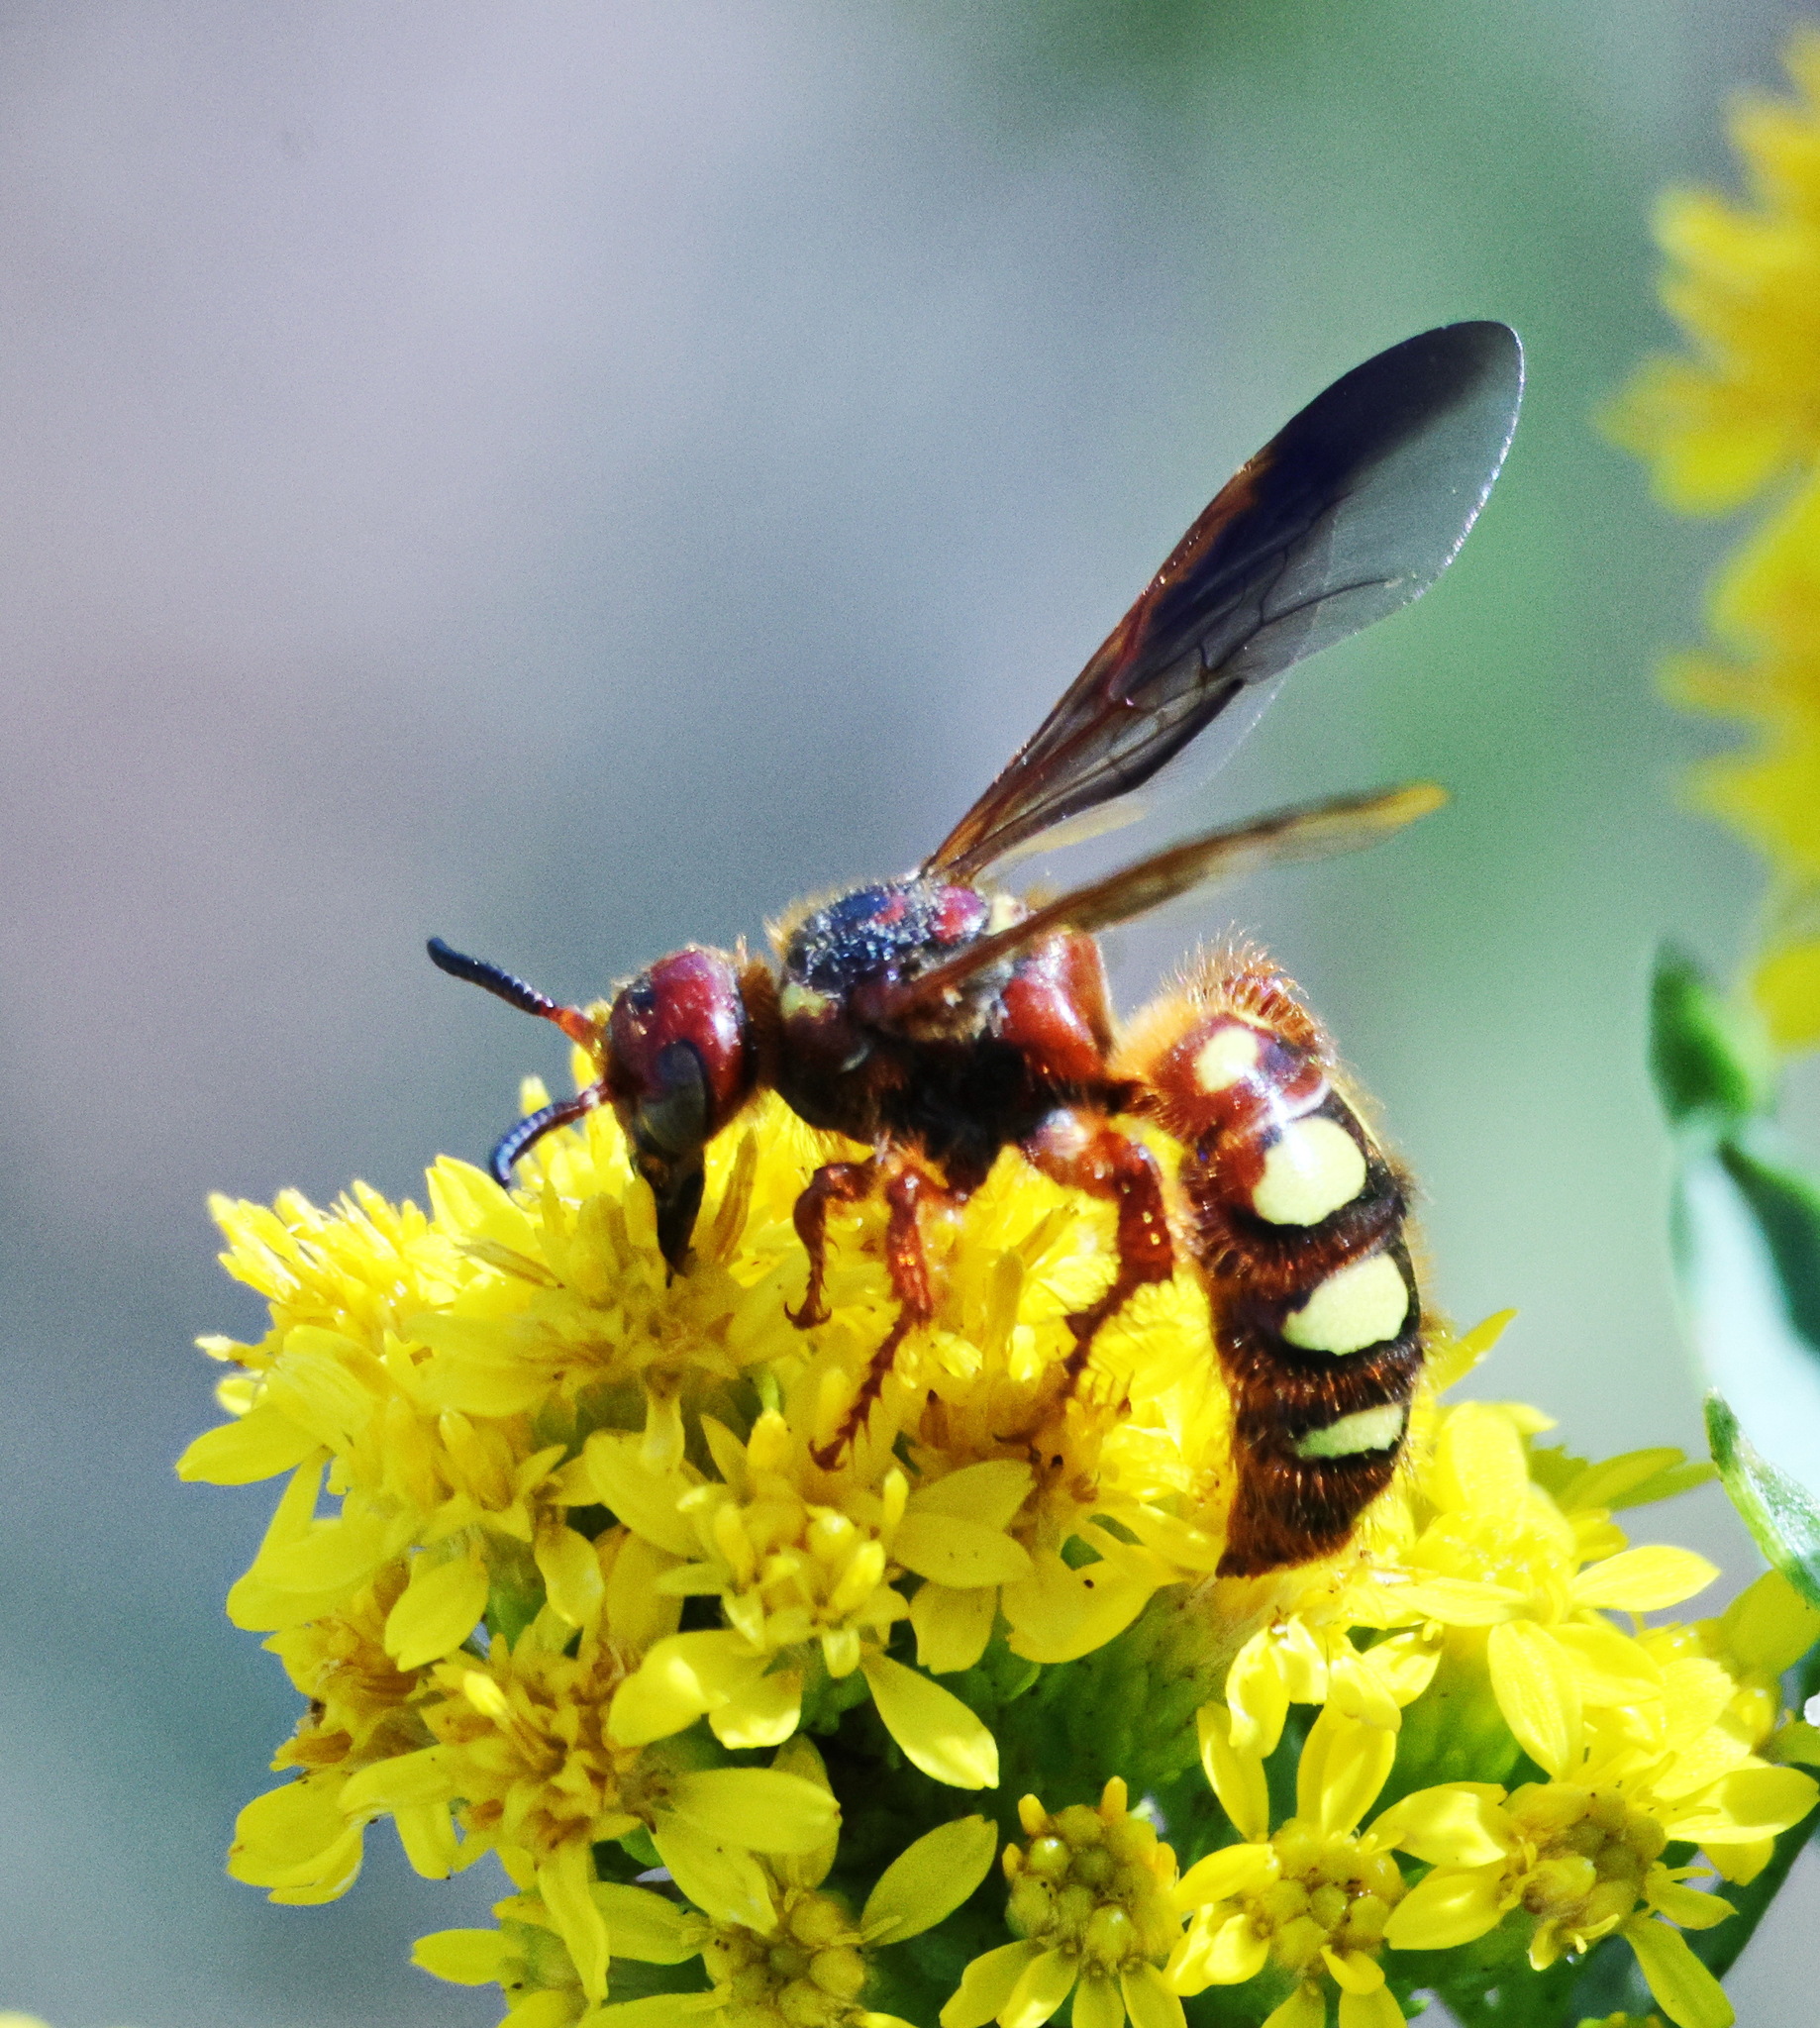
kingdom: Animalia
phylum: Arthropoda
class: Insecta
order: Hymenoptera
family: Scoliidae
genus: Colpa
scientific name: Colpa octomaculata
